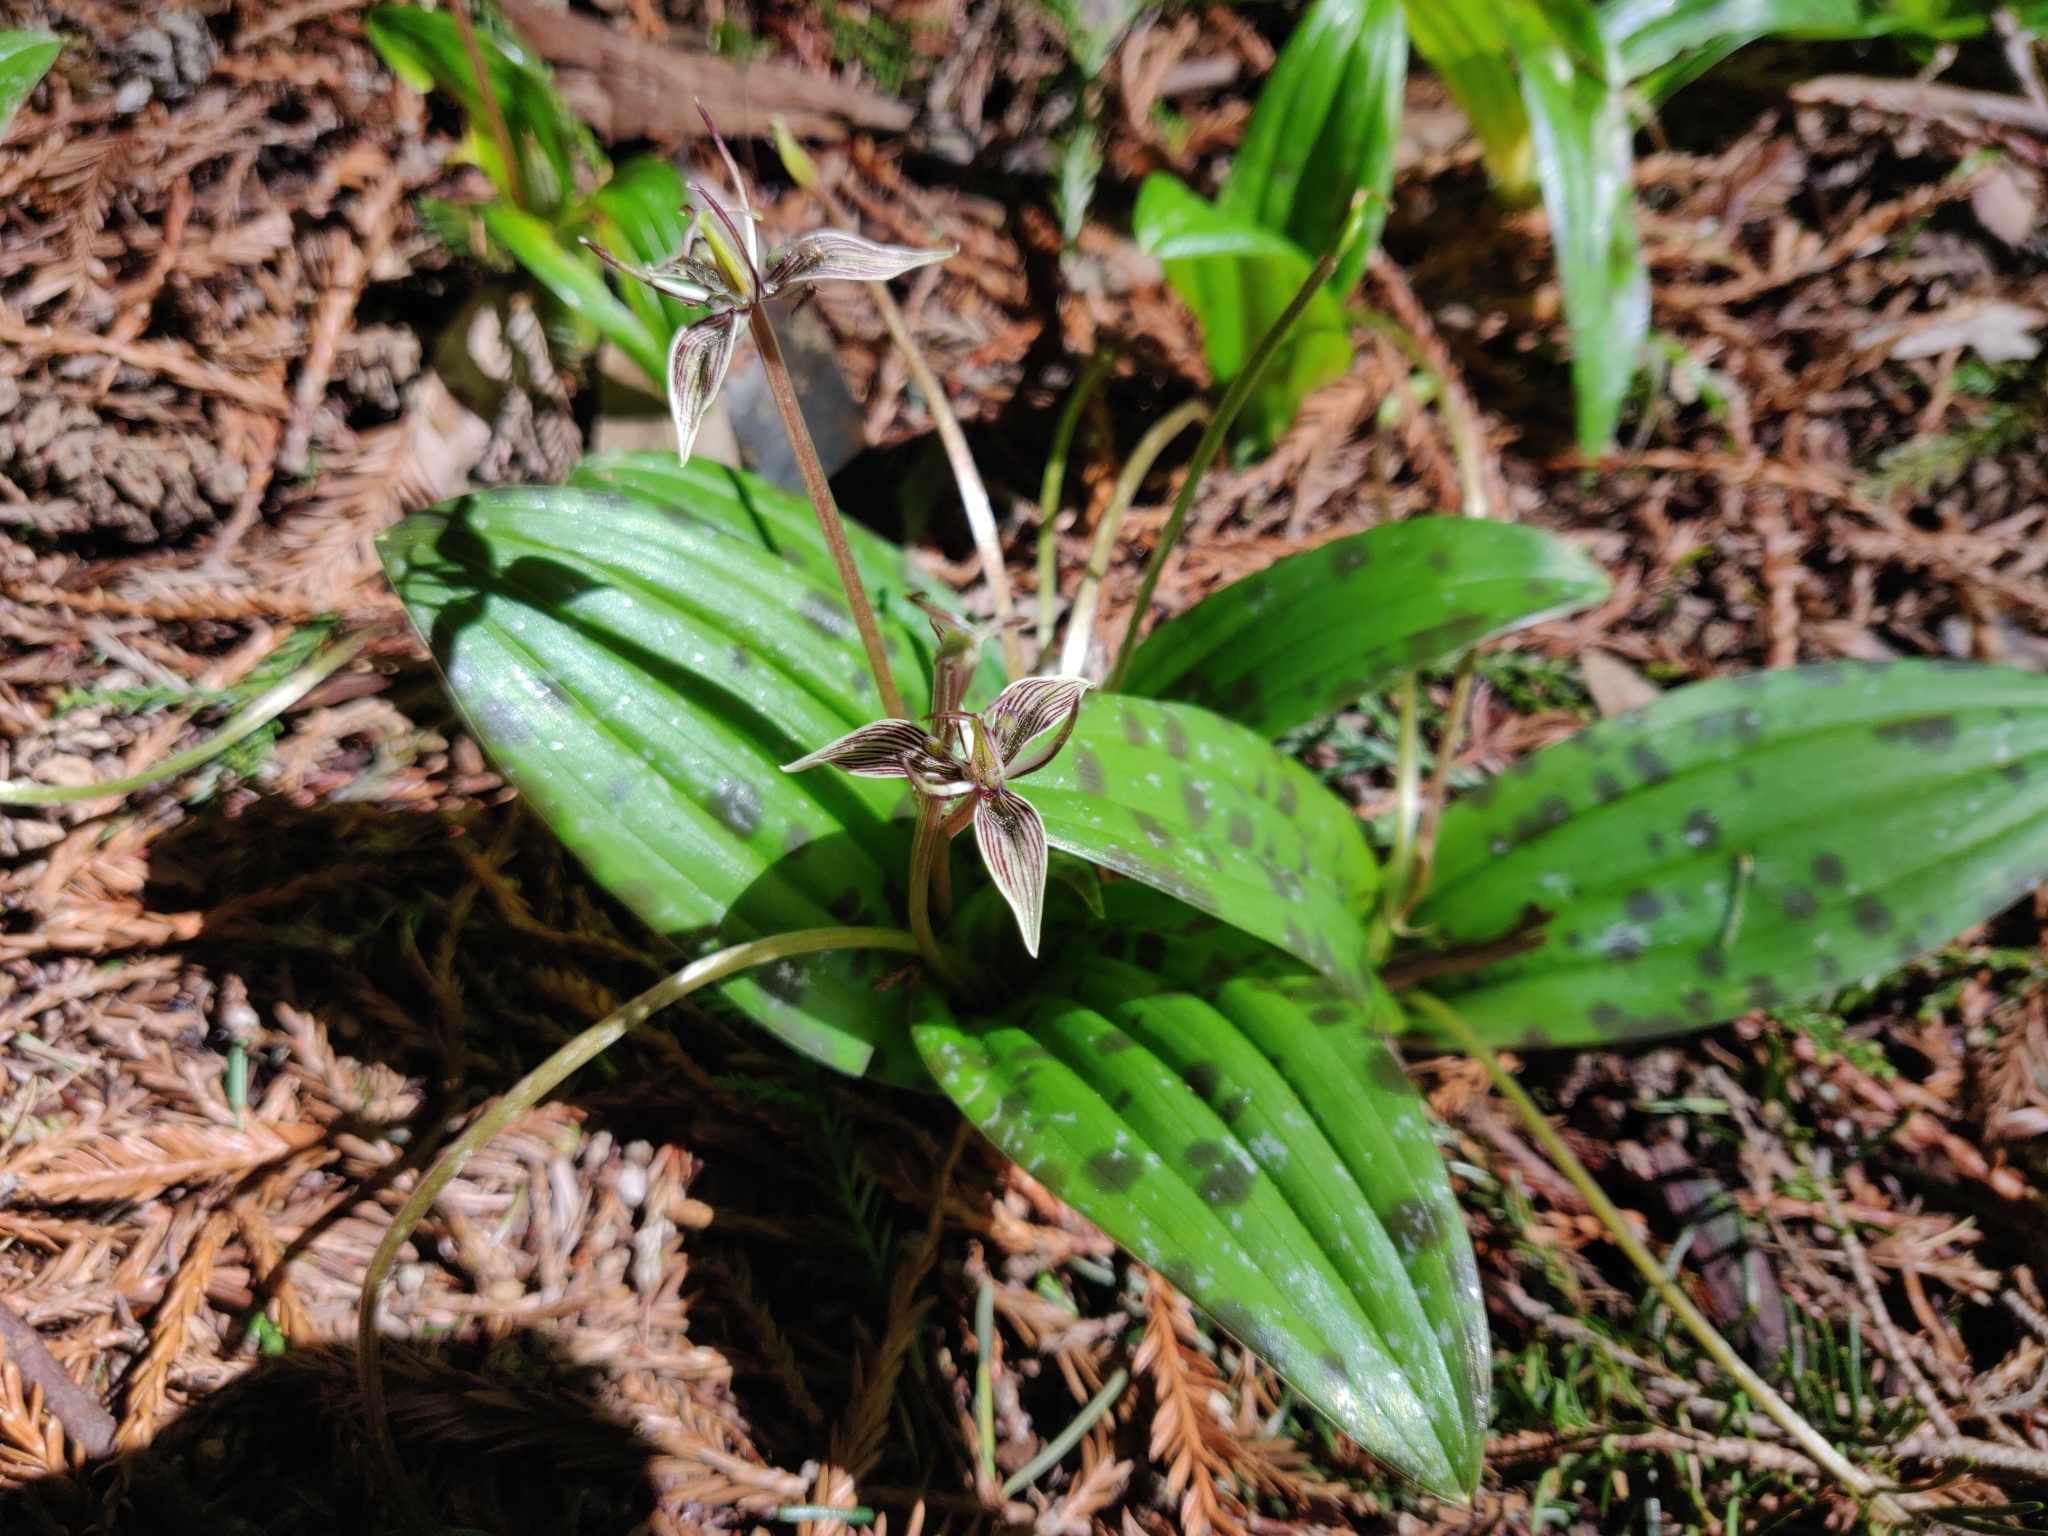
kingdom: Plantae
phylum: Tracheophyta
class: Liliopsida
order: Liliales
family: Liliaceae
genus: Scoliopus
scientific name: Scoliopus bigelovii
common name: Foetid adder's-tongue
